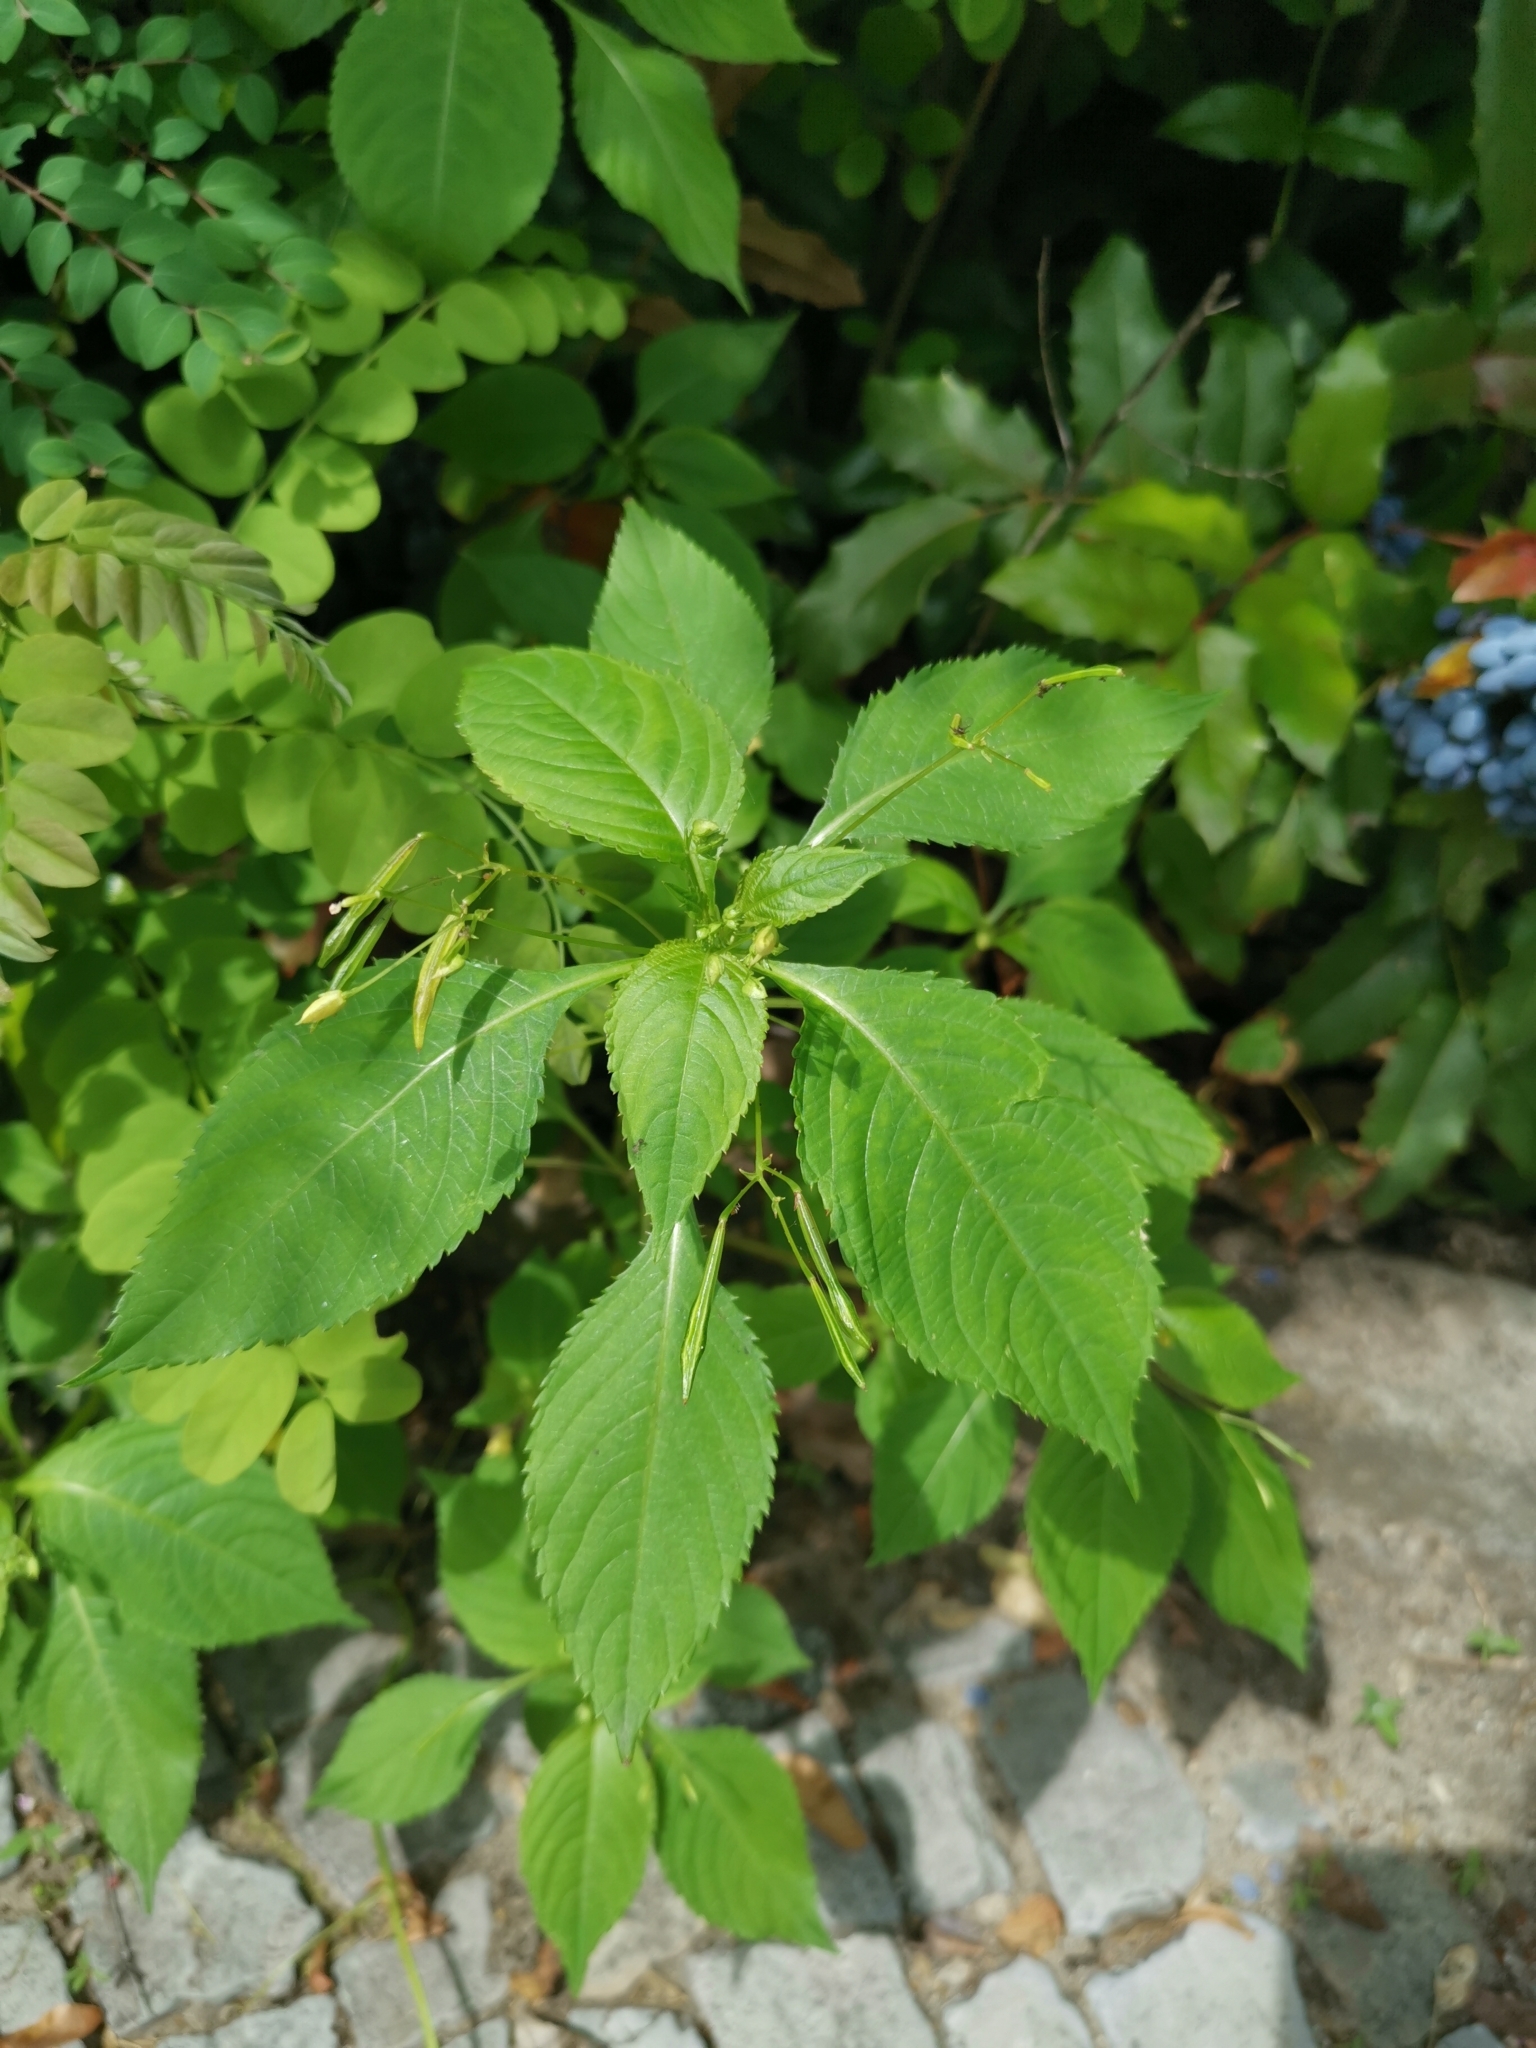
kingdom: Plantae
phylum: Tracheophyta
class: Magnoliopsida
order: Ericales
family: Balsaminaceae
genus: Impatiens
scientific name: Impatiens parviflora
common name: Small balsam
